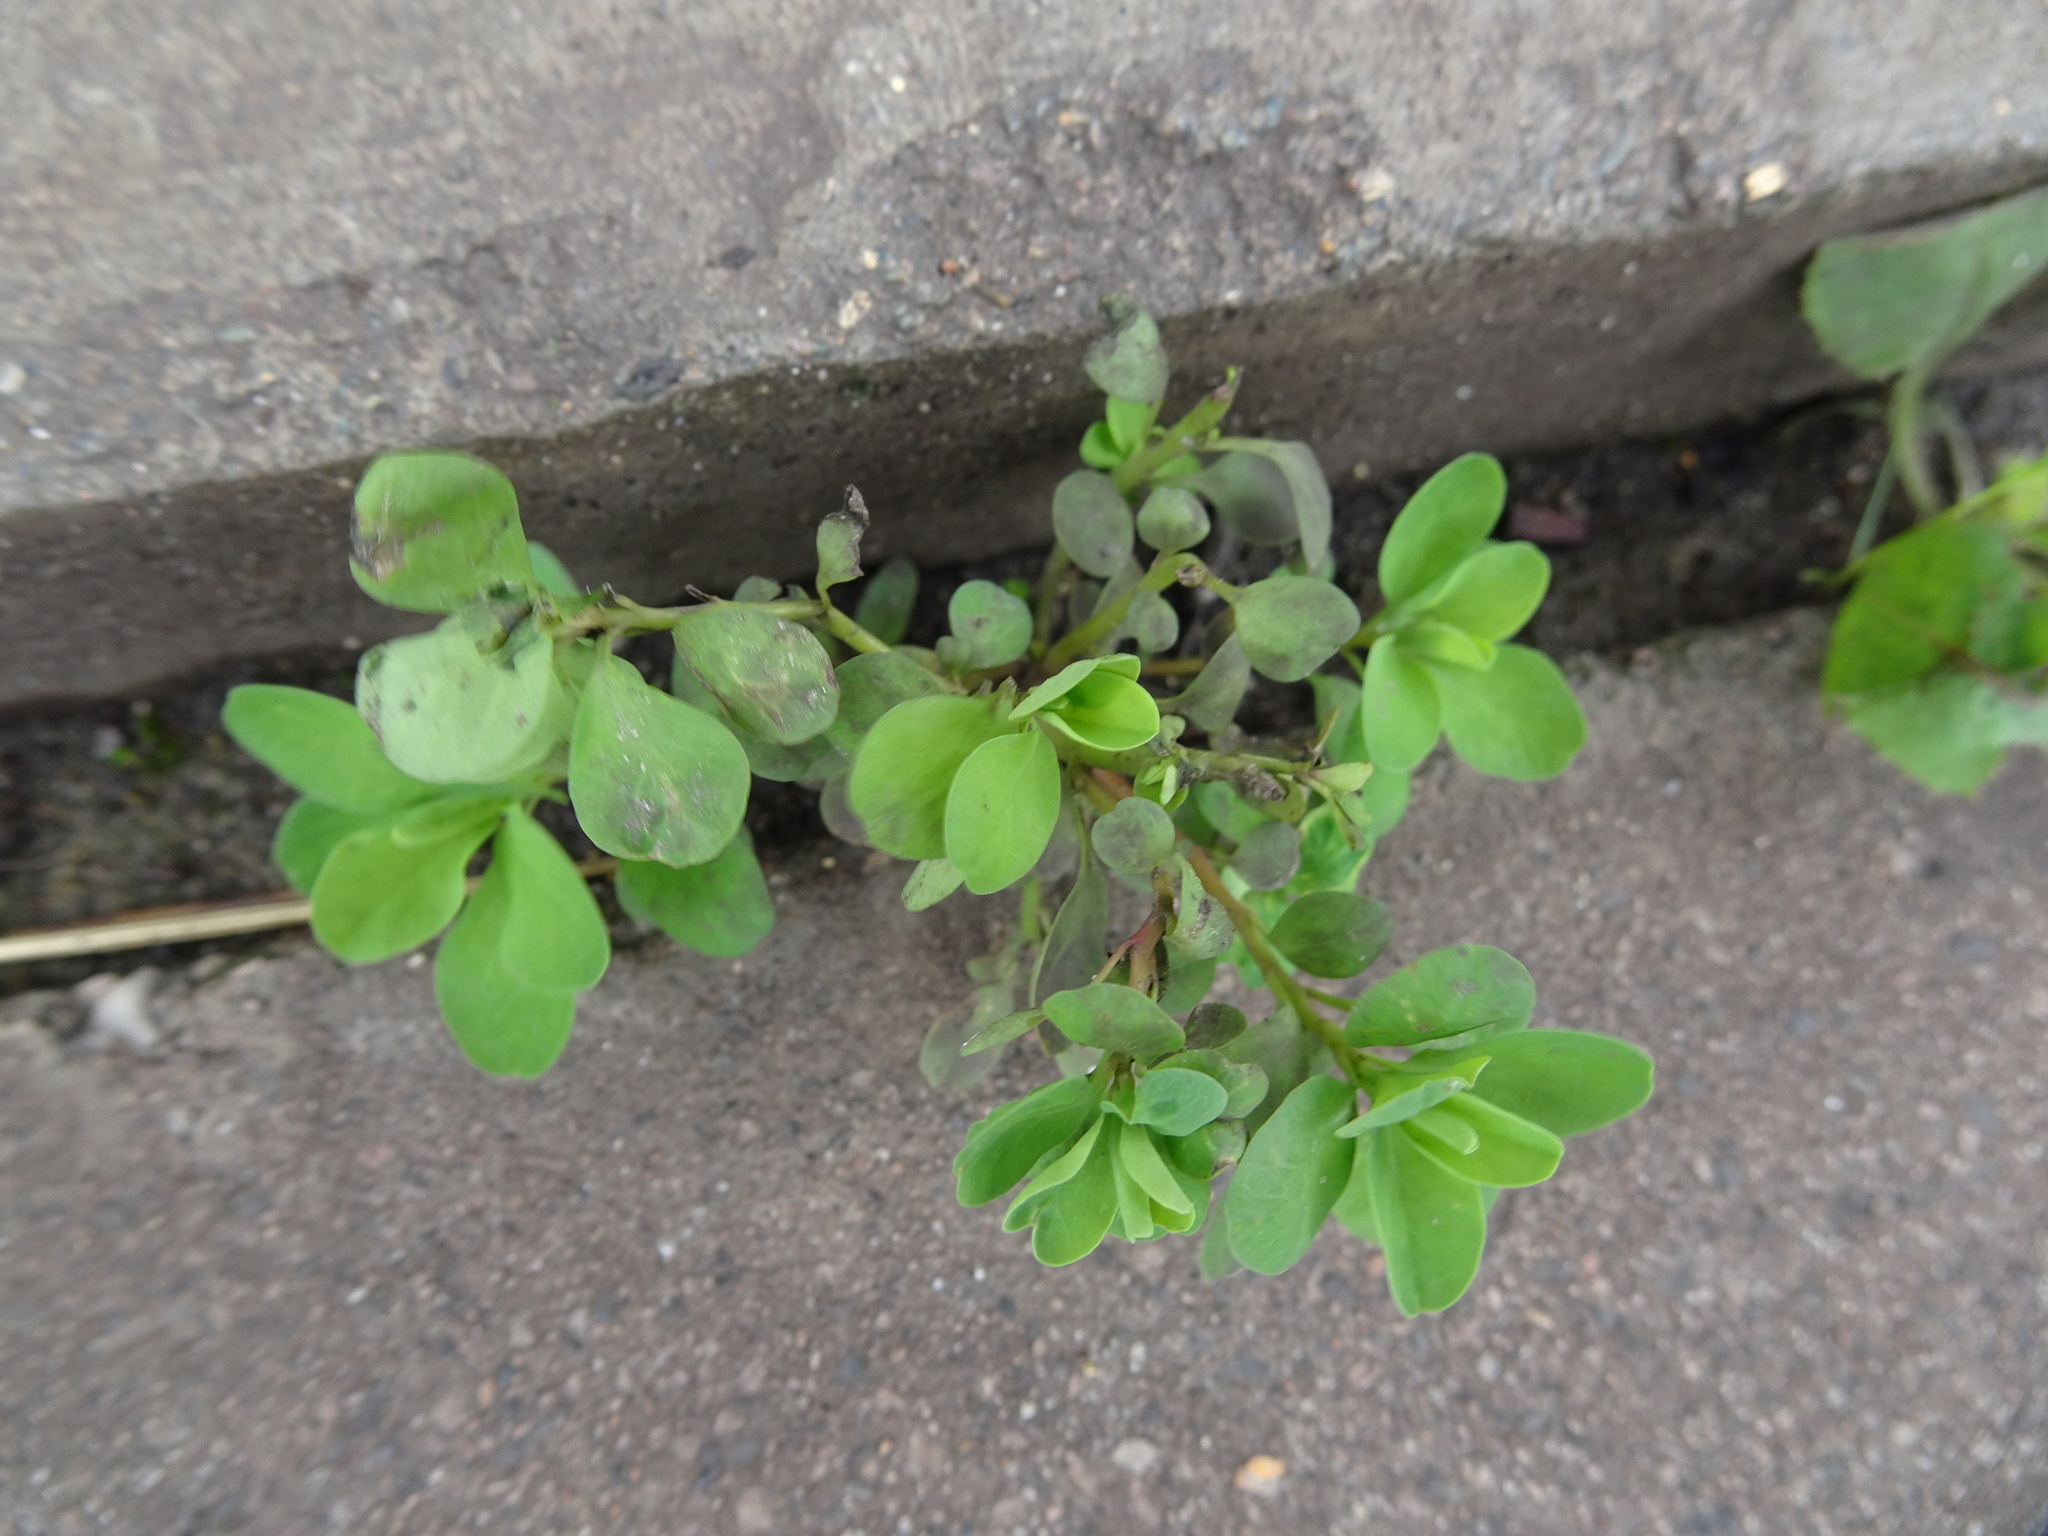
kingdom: Plantae
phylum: Tracheophyta
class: Magnoliopsida
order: Malpighiales
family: Euphorbiaceae
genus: Euphorbia
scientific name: Euphorbia peplus
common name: Petty spurge
